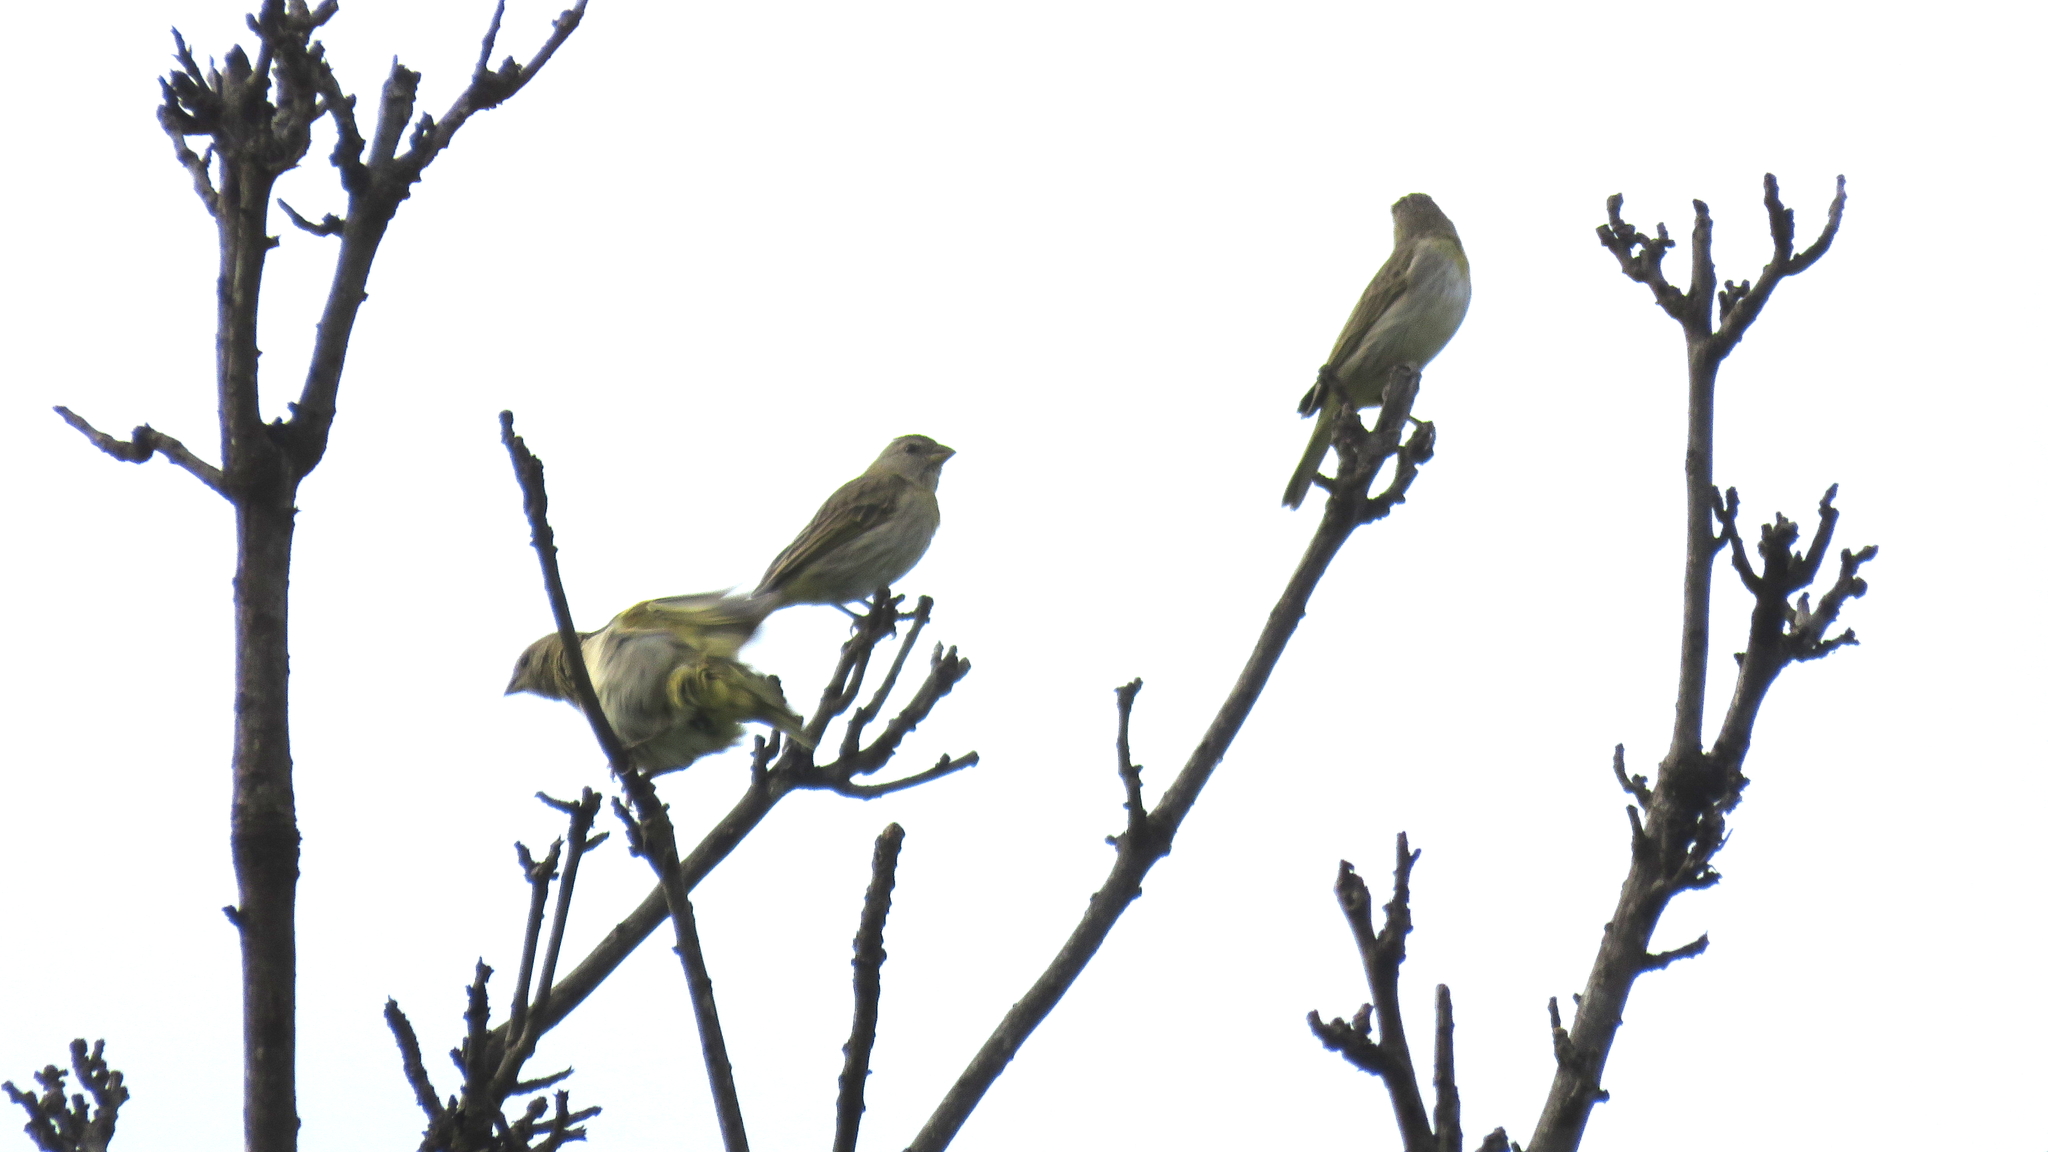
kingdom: Animalia
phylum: Chordata
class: Aves
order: Passeriformes
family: Thraupidae
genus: Sicalis
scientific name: Sicalis flaveola
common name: Saffron finch
